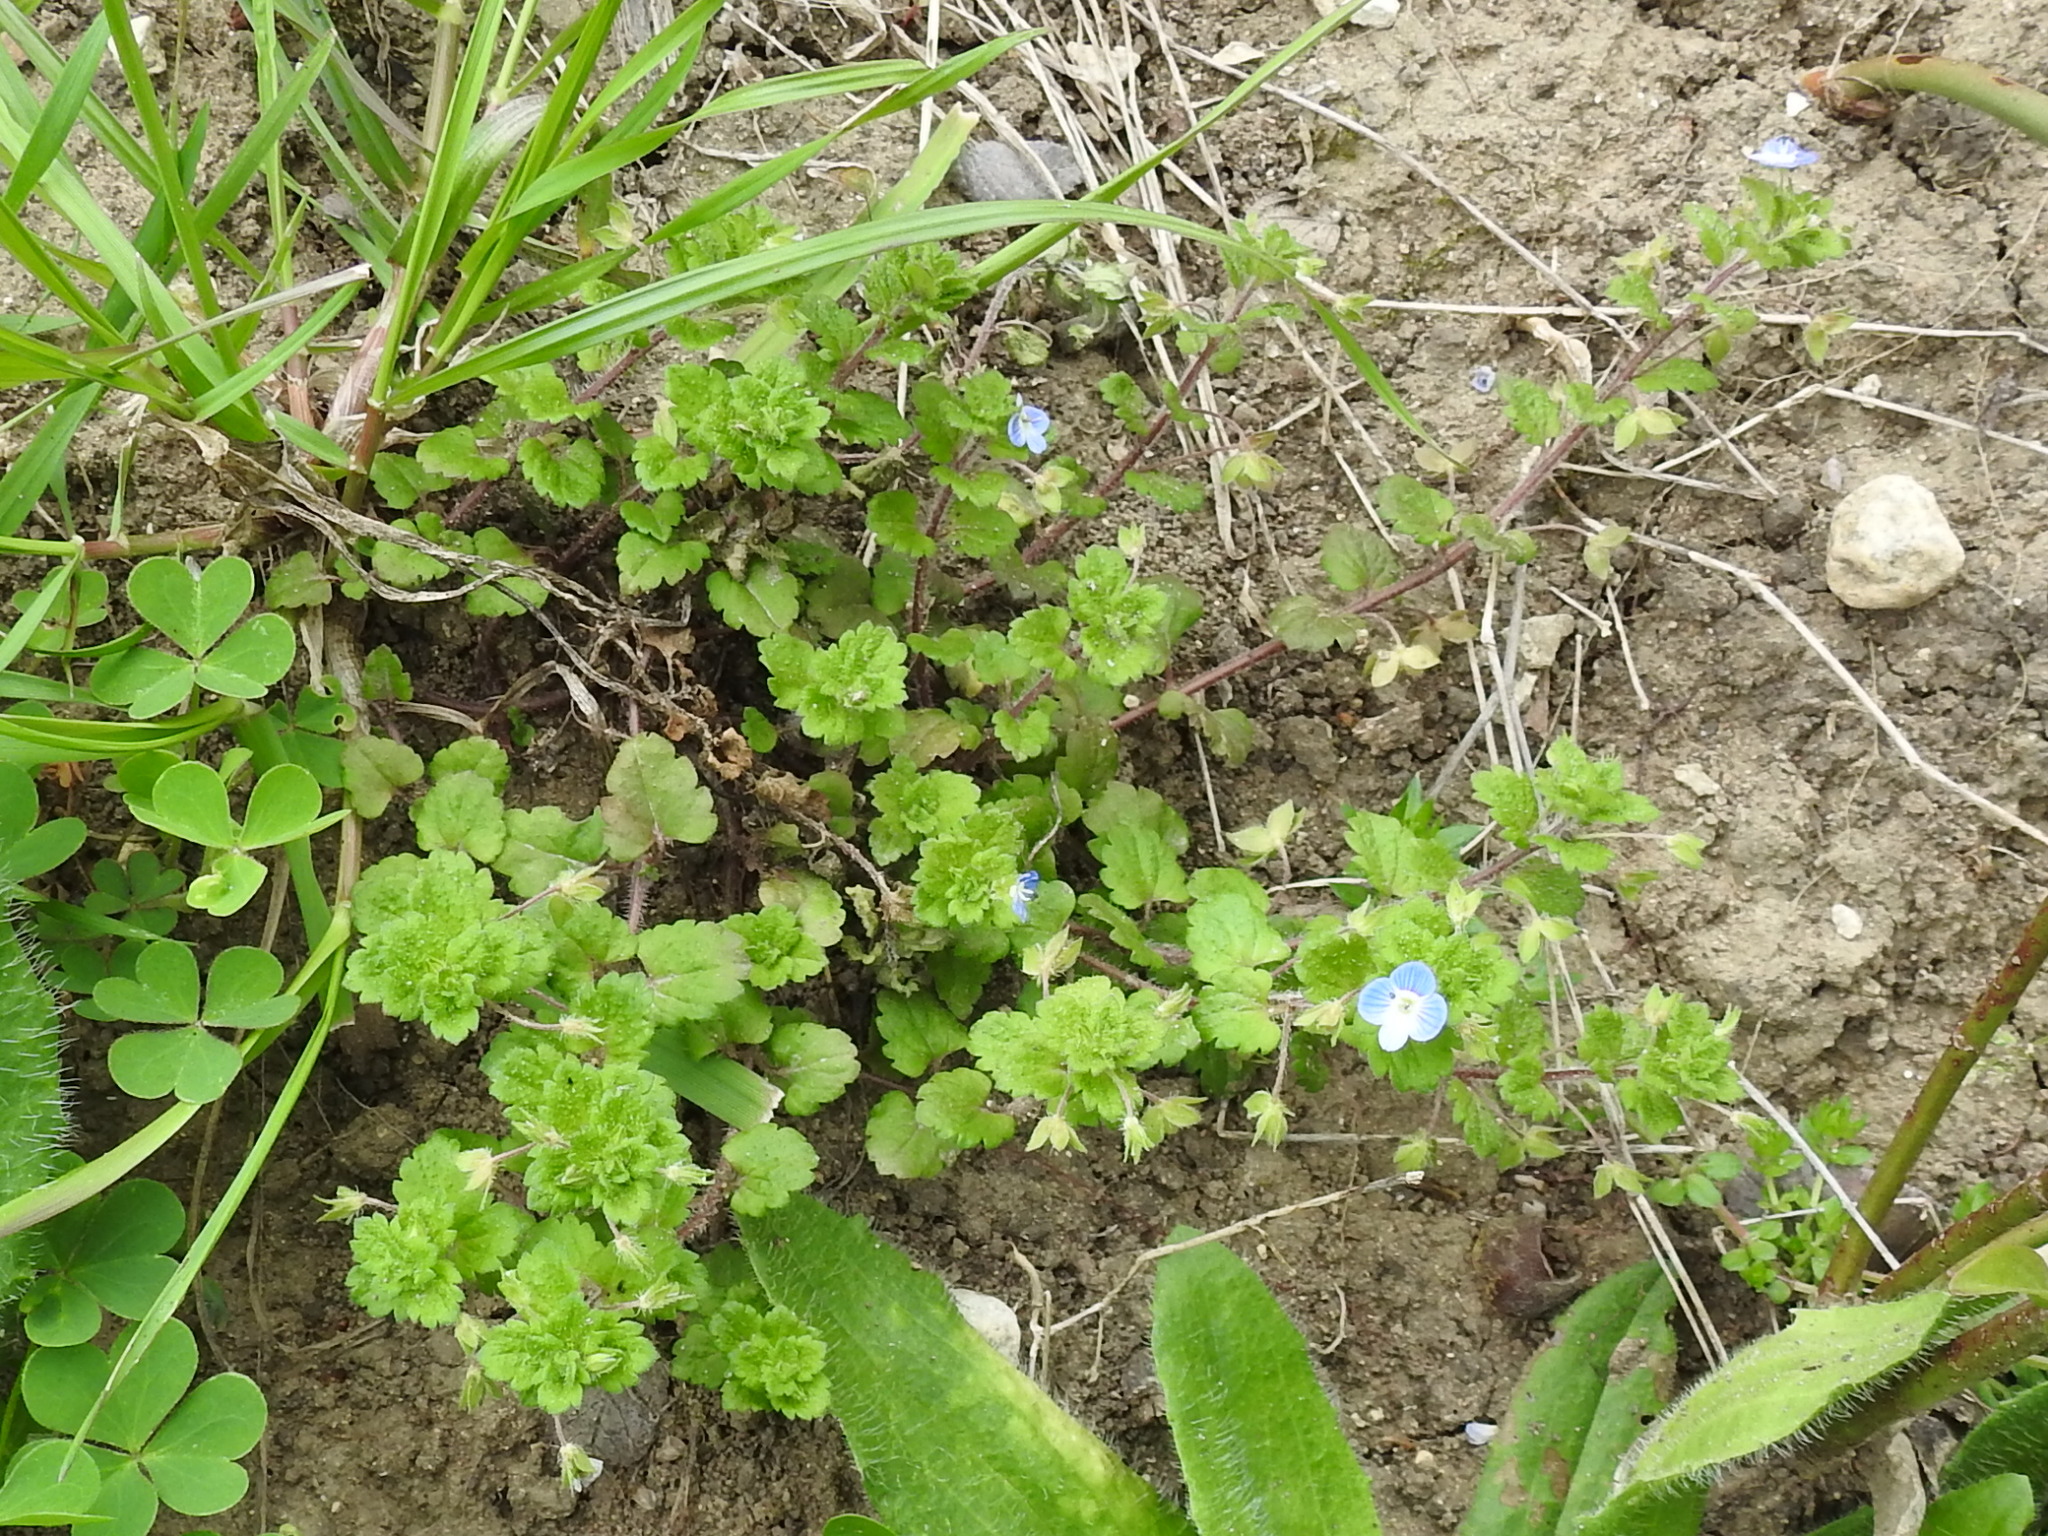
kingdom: Plantae
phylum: Tracheophyta
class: Magnoliopsida
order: Lamiales
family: Plantaginaceae
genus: Veronica
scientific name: Veronica persica
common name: Common field-speedwell
